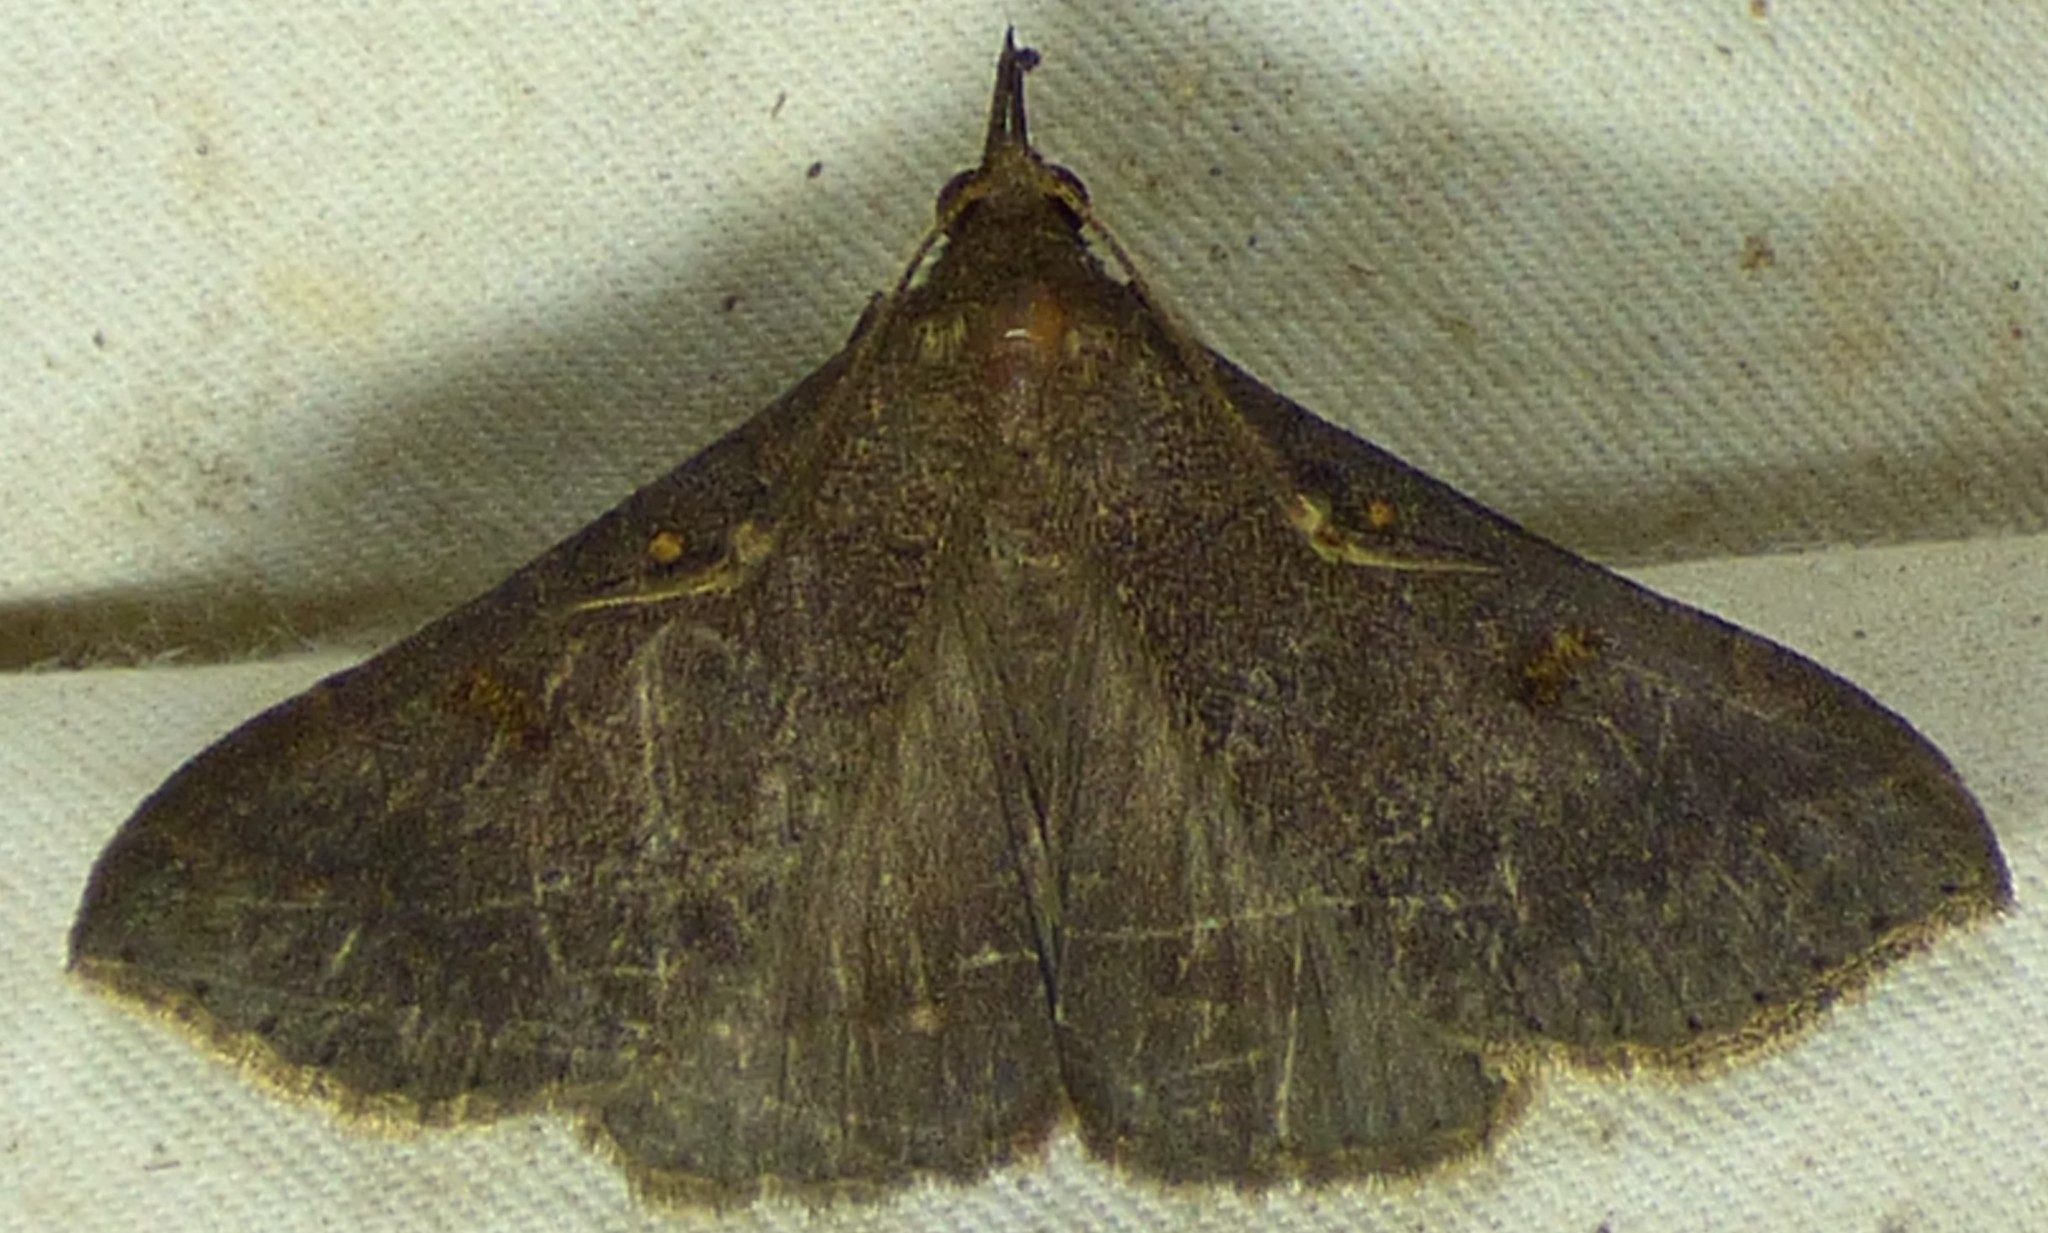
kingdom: Animalia
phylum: Arthropoda
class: Insecta
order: Lepidoptera
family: Erebidae
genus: Renia
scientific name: Renia discoloralis
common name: Discolored renia moth
